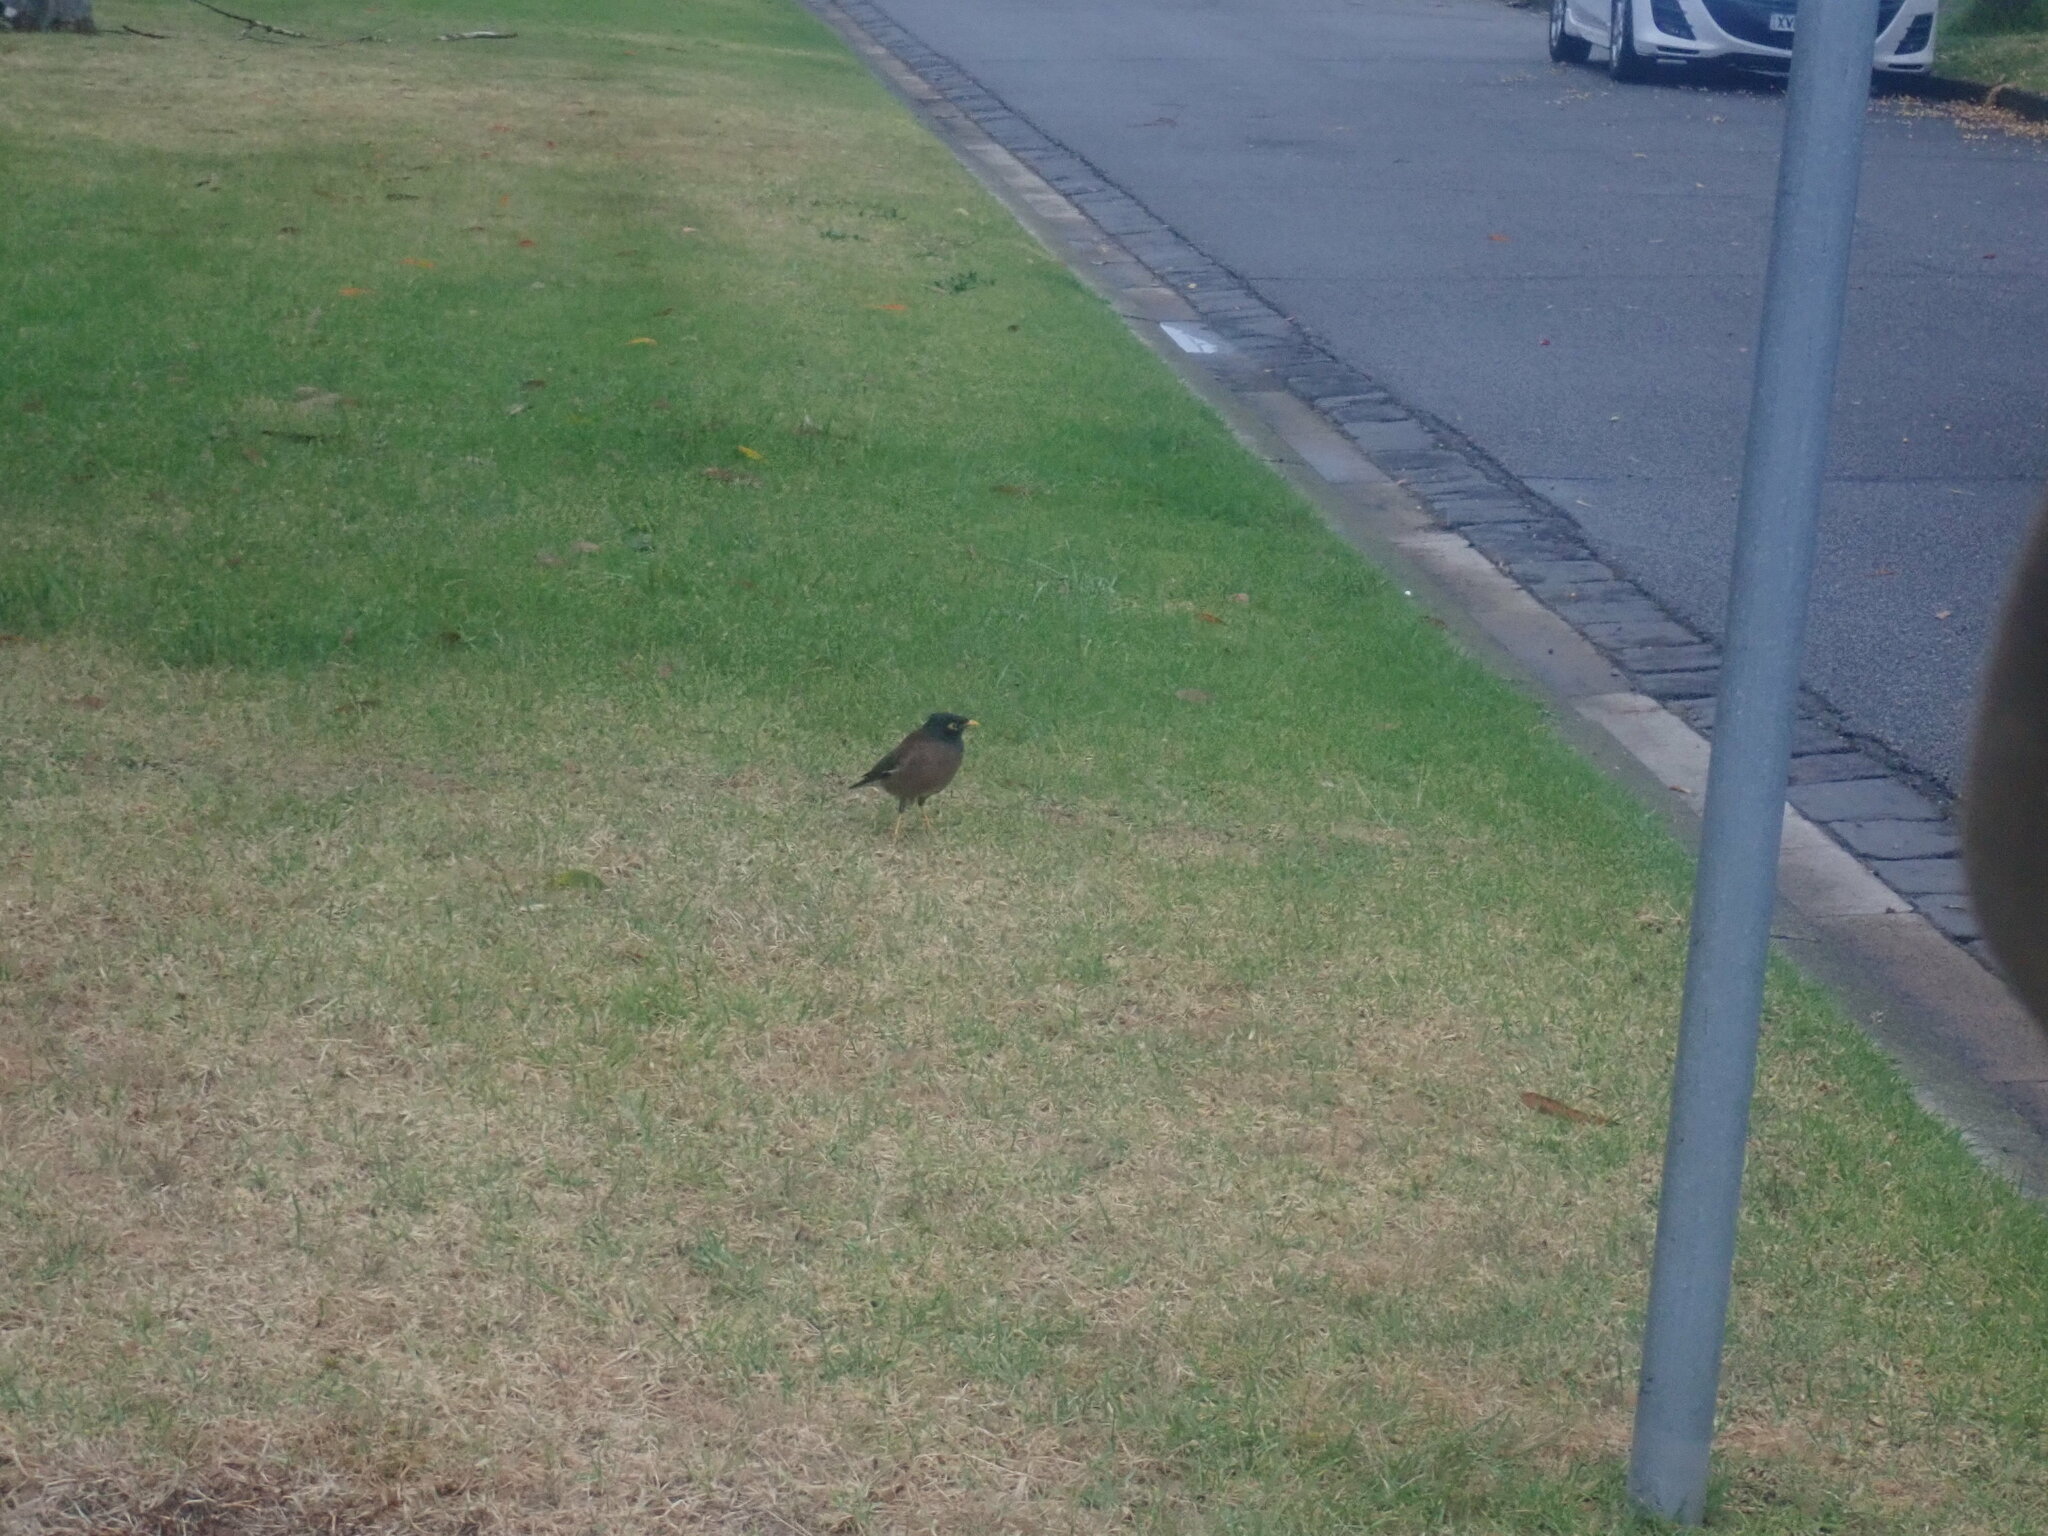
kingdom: Animalia
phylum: Chordata
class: Aves
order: Passeriformes
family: Sturnidae
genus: Acridotheres
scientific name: Acridotheres tristis
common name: Common myna
